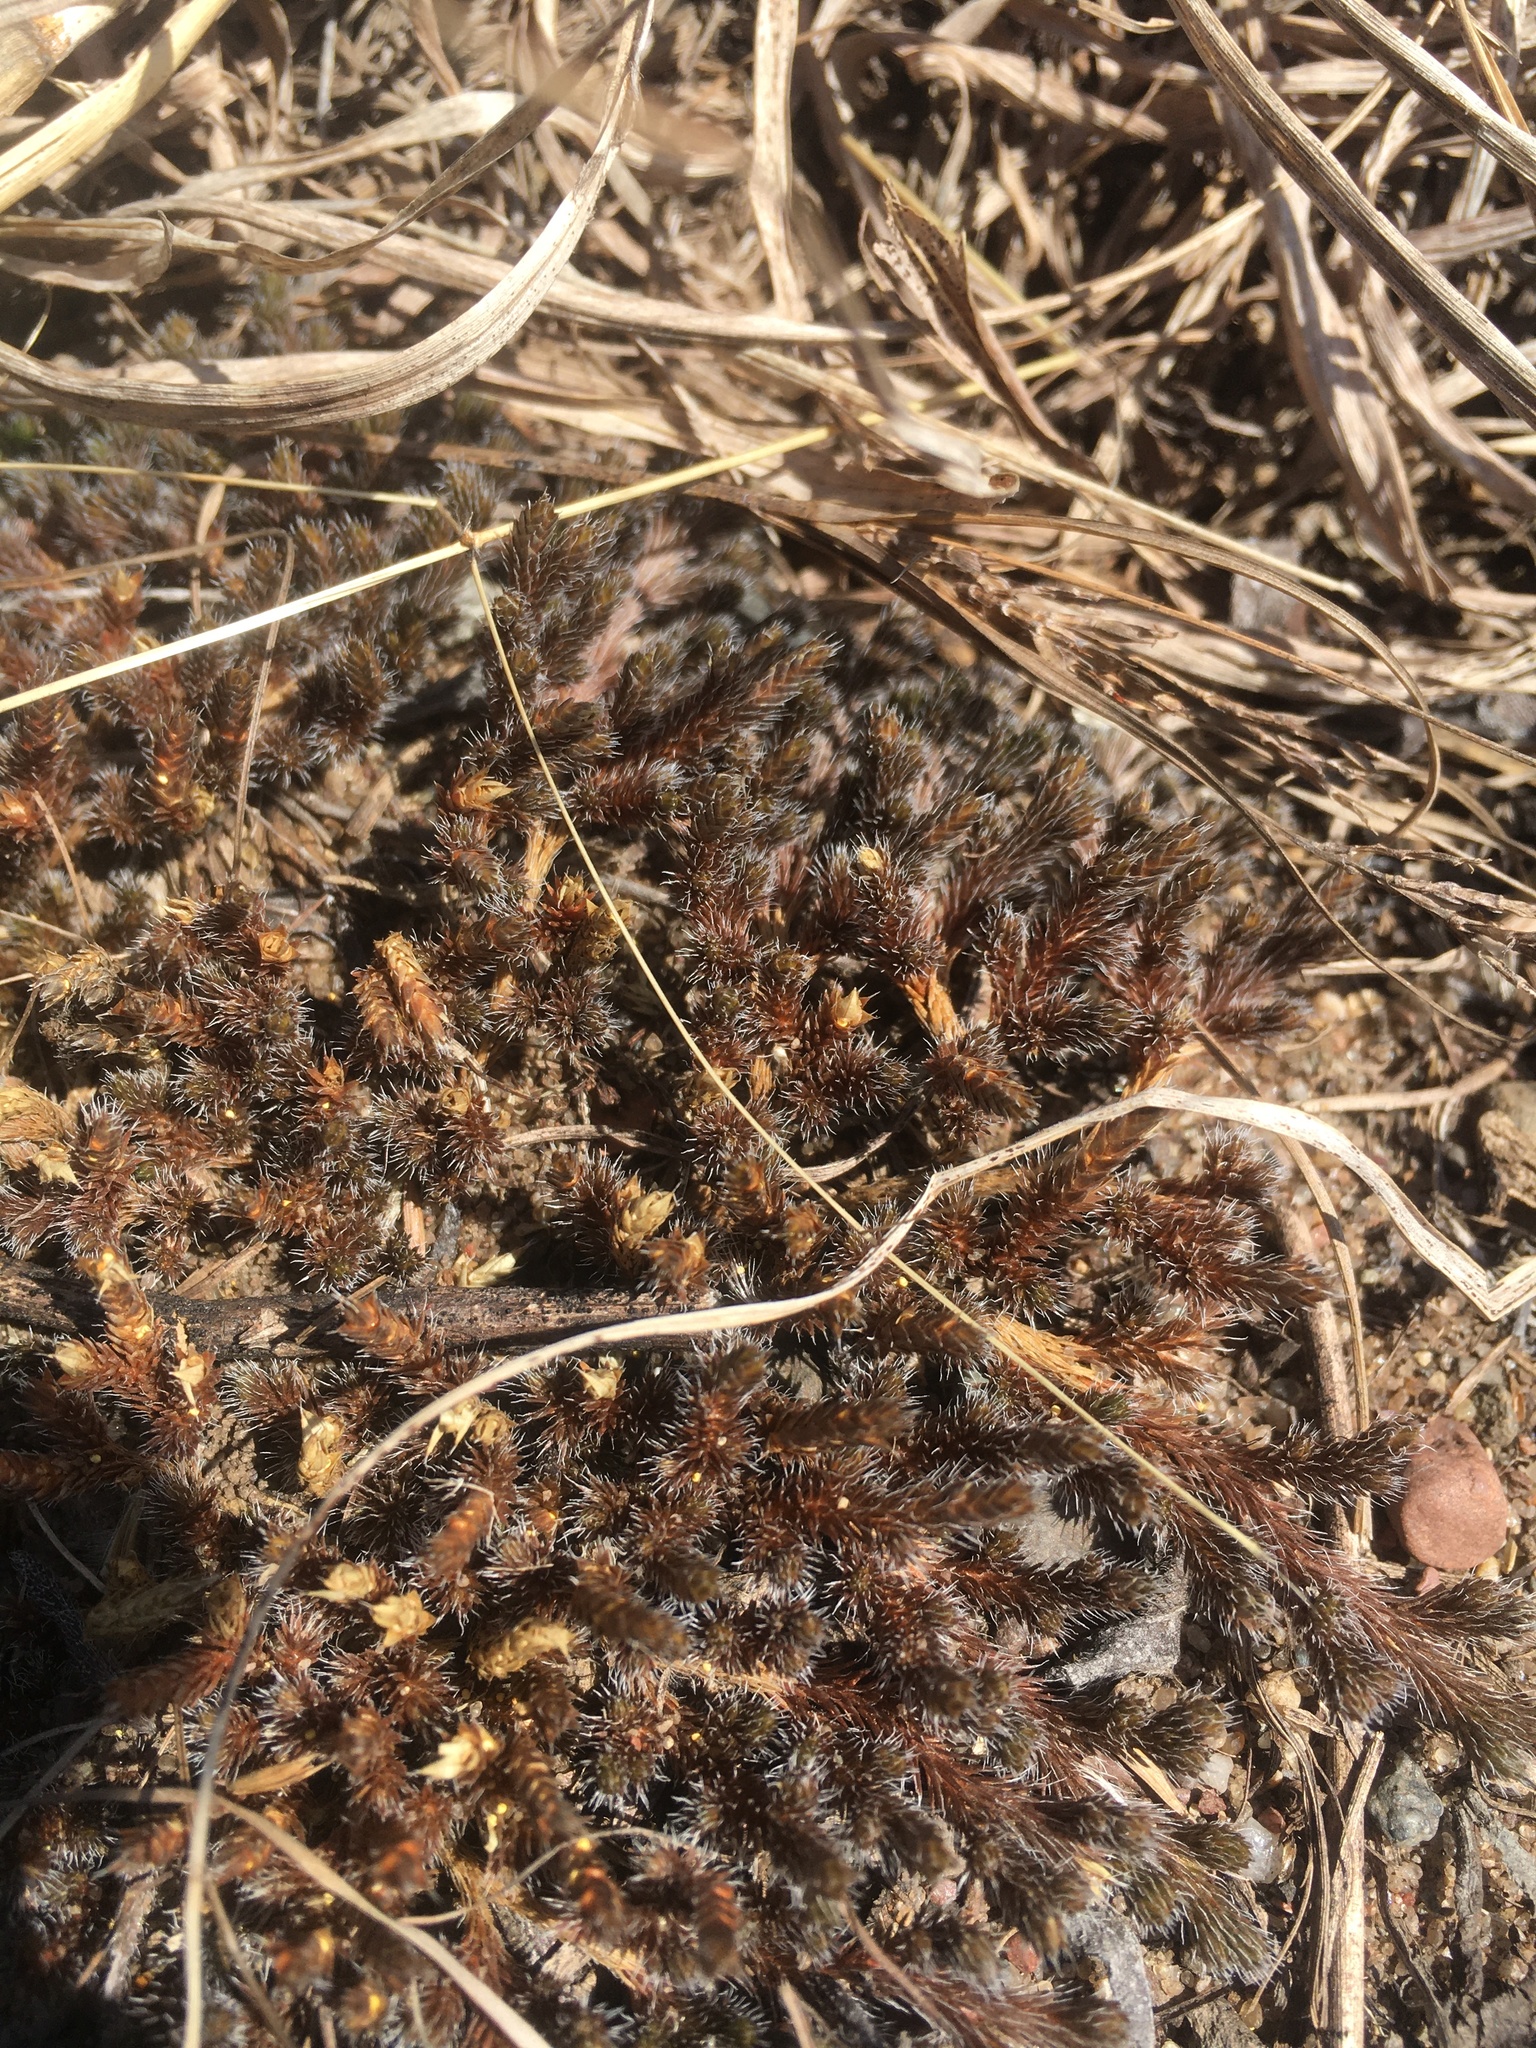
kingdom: Plantae
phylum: Tracheophyta
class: Lycopodiopsida
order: Selaginellales
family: Selaginellaceae
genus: Selaginella
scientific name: Selaginella rupestris
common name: Dwarf spikemoss
